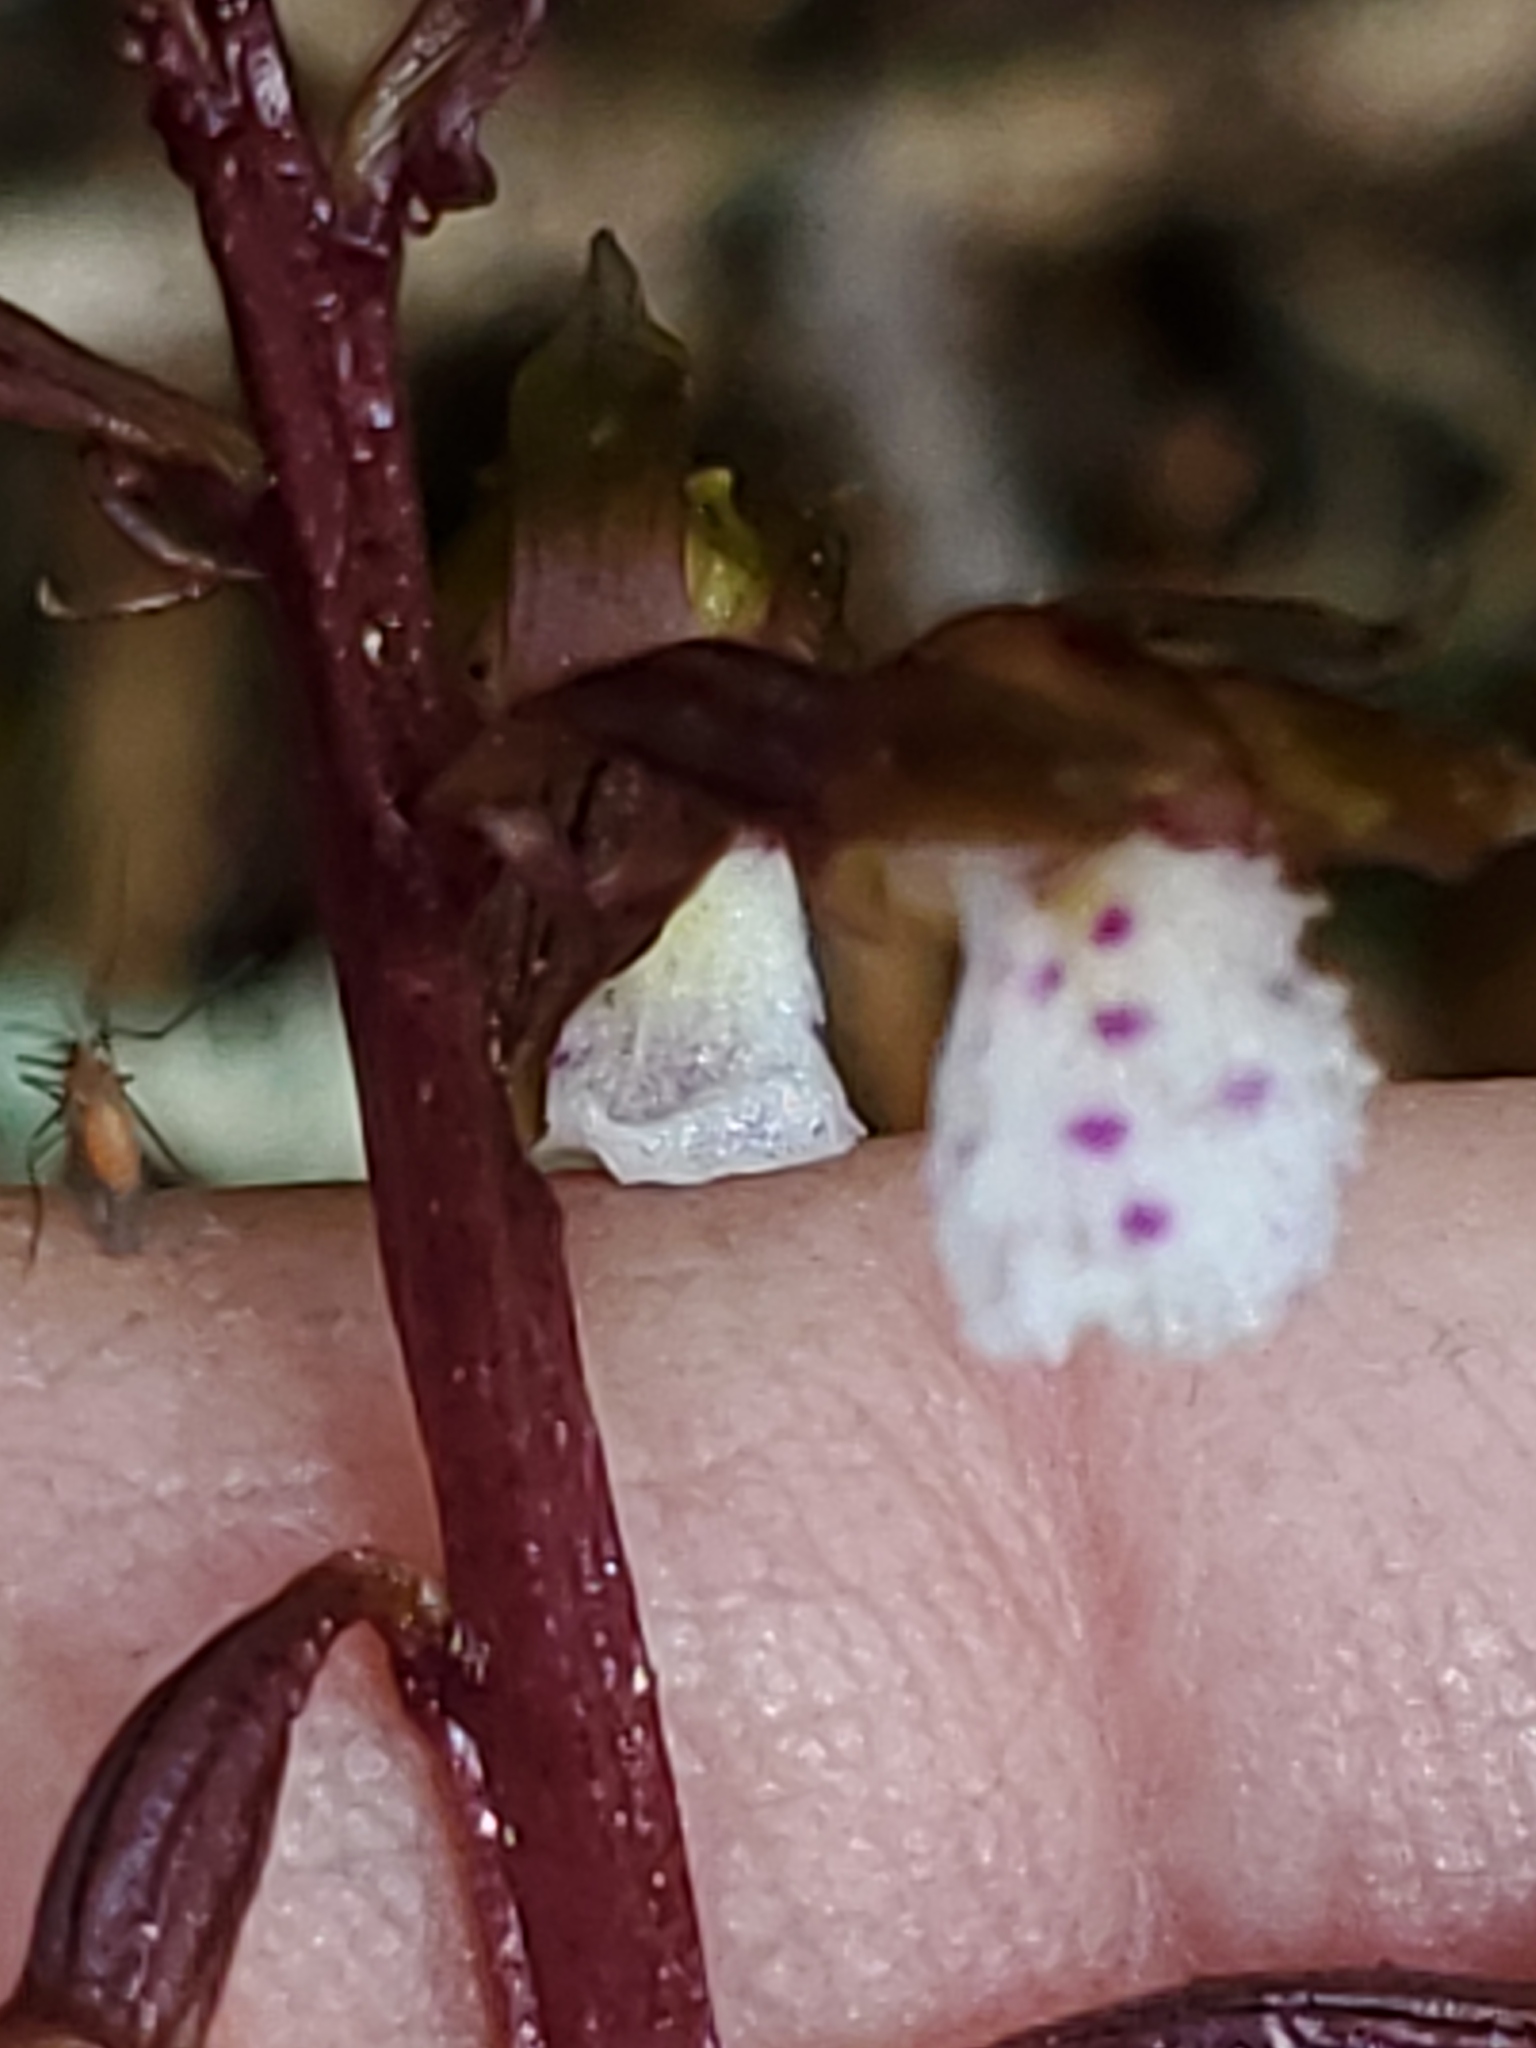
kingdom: Plantae
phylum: Tracheophyta
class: Liliopsida
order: Asparagales
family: Orchidaceae
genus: Corallorhiza
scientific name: Corallorhiza wisteriana
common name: Spring coralroot
